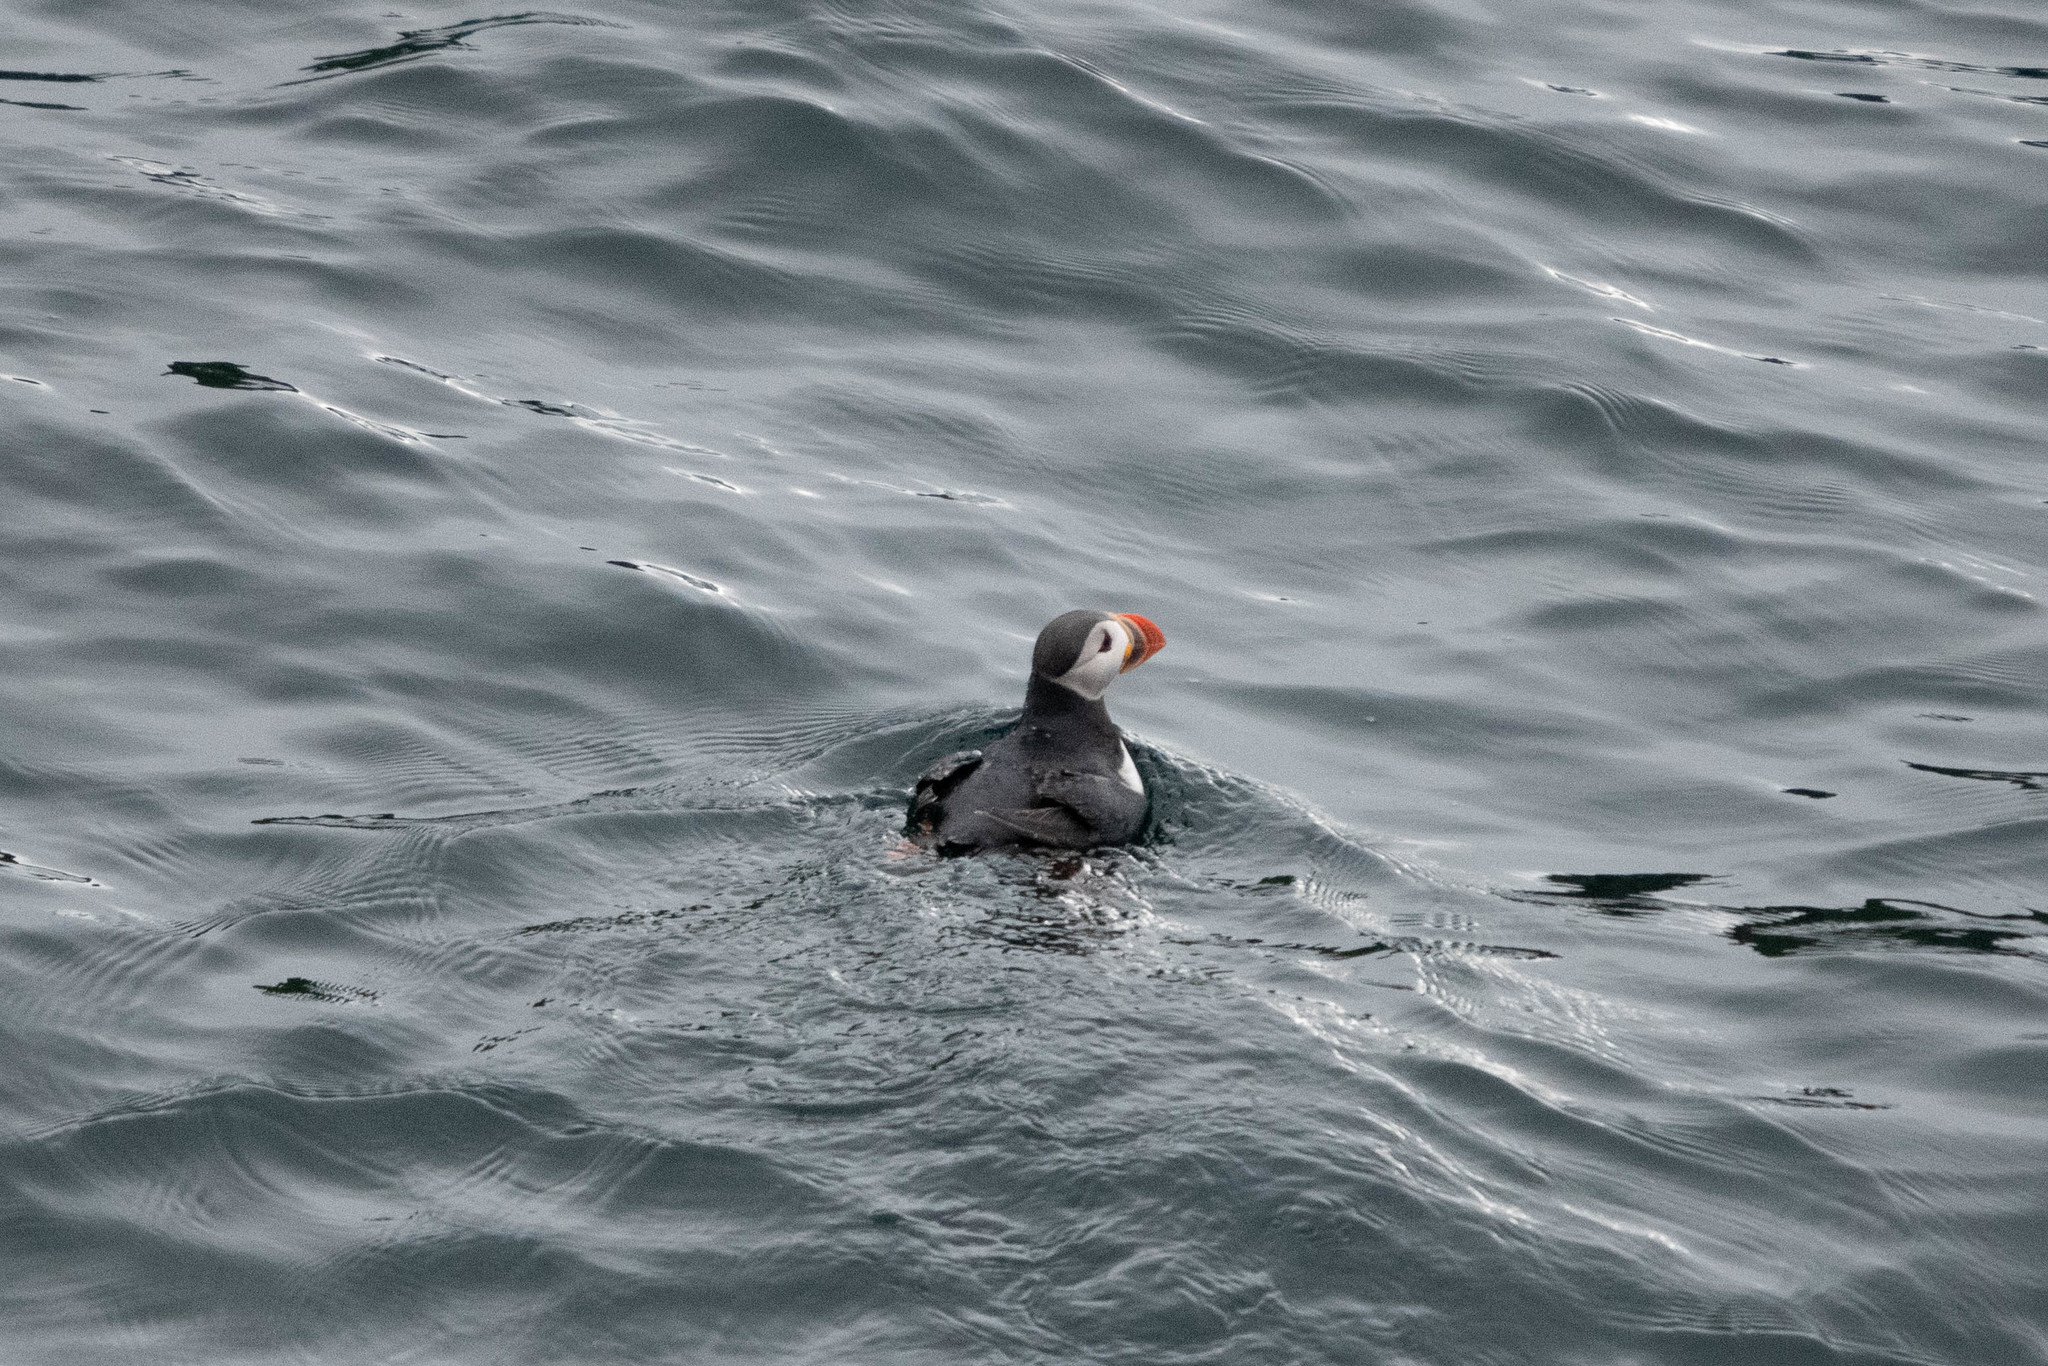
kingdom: Animalia
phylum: Chordata
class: Aves
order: Charadriiformes
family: Alcidae
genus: Fratercula
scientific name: Fratercula arctica
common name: Atlantic puffin
